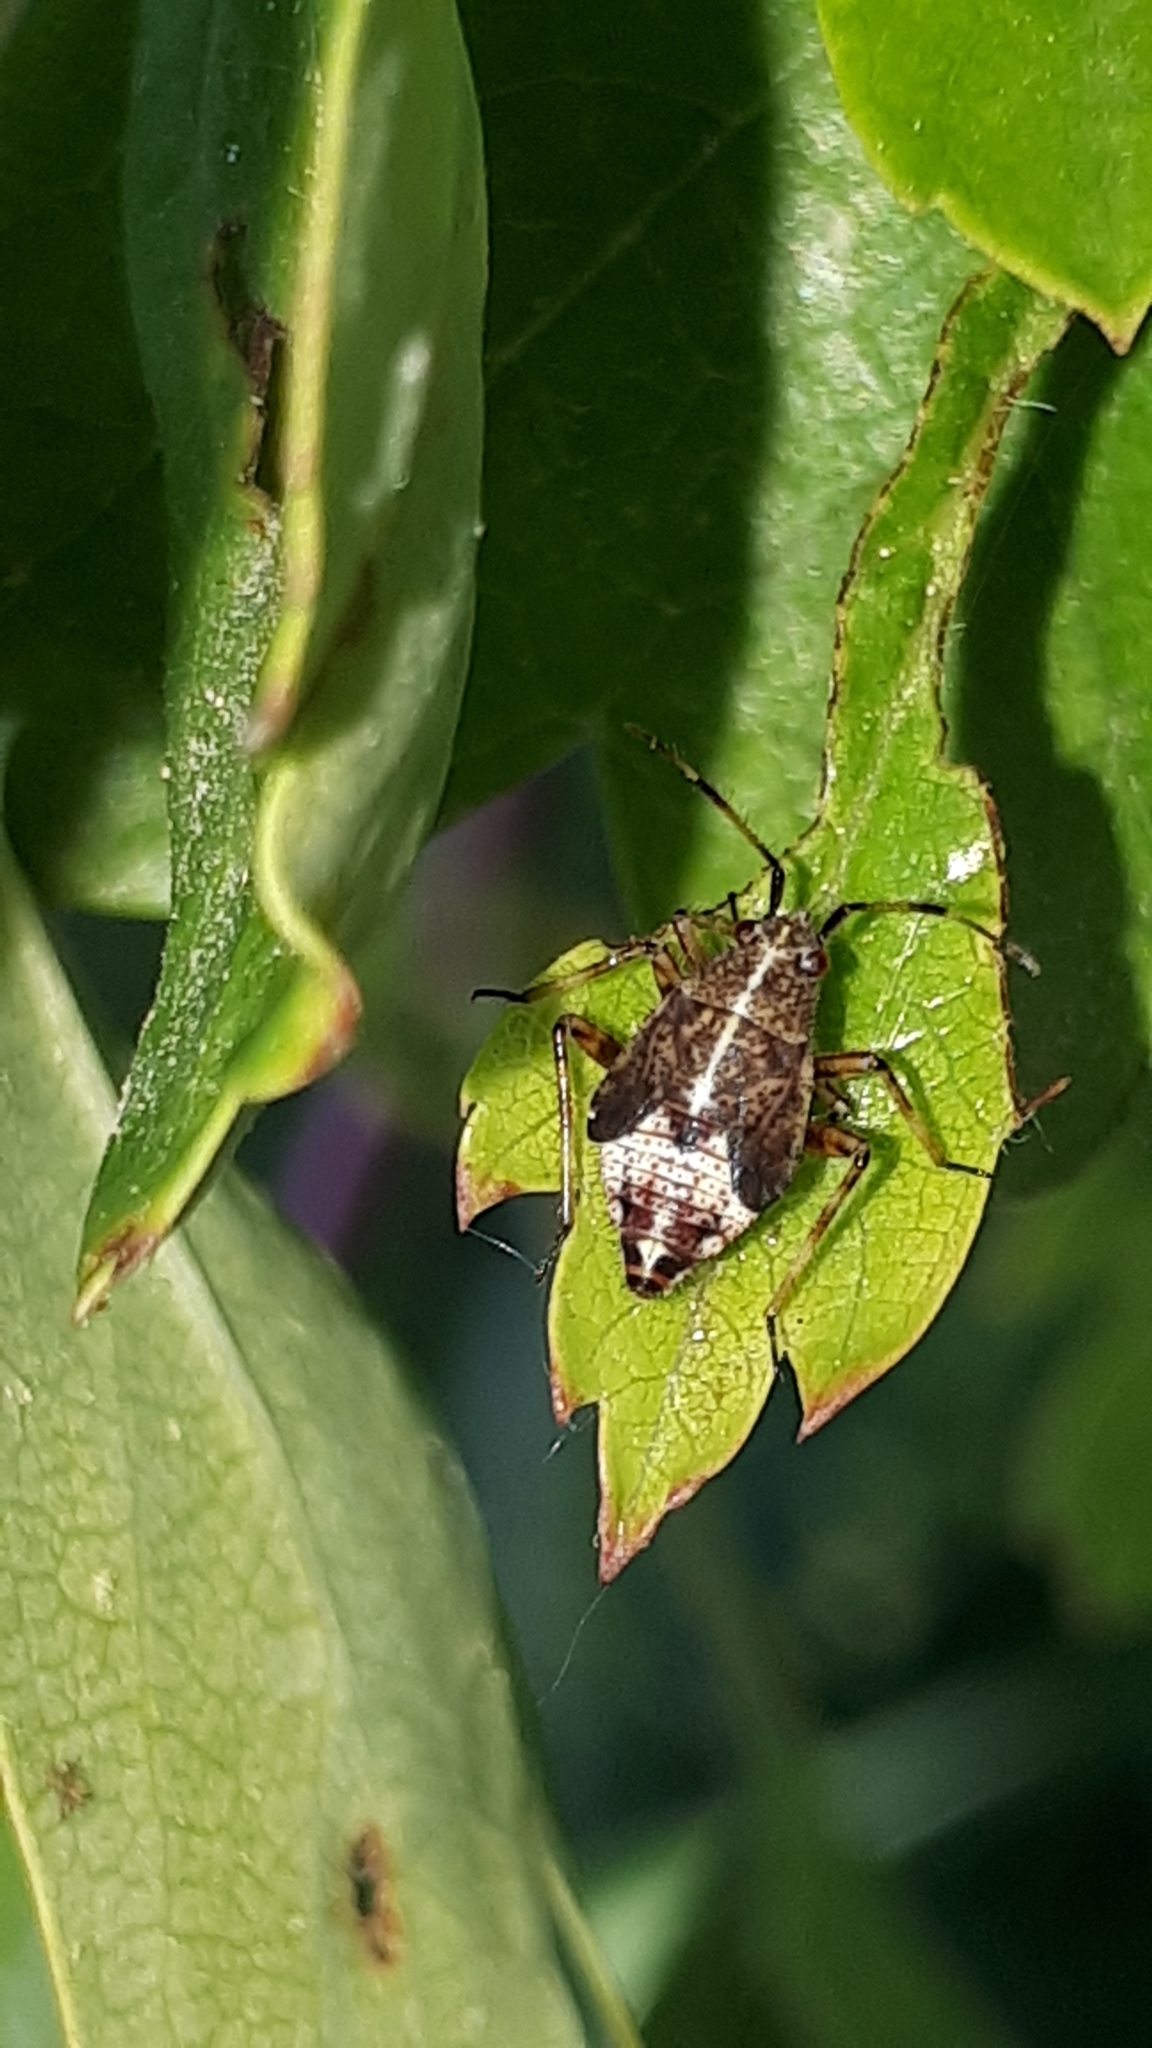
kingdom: Animalia
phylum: Arthropoda
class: Insecta
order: Hemiptera
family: Miridae
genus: Deraeocoris
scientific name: Deraeocoris flavilinea
